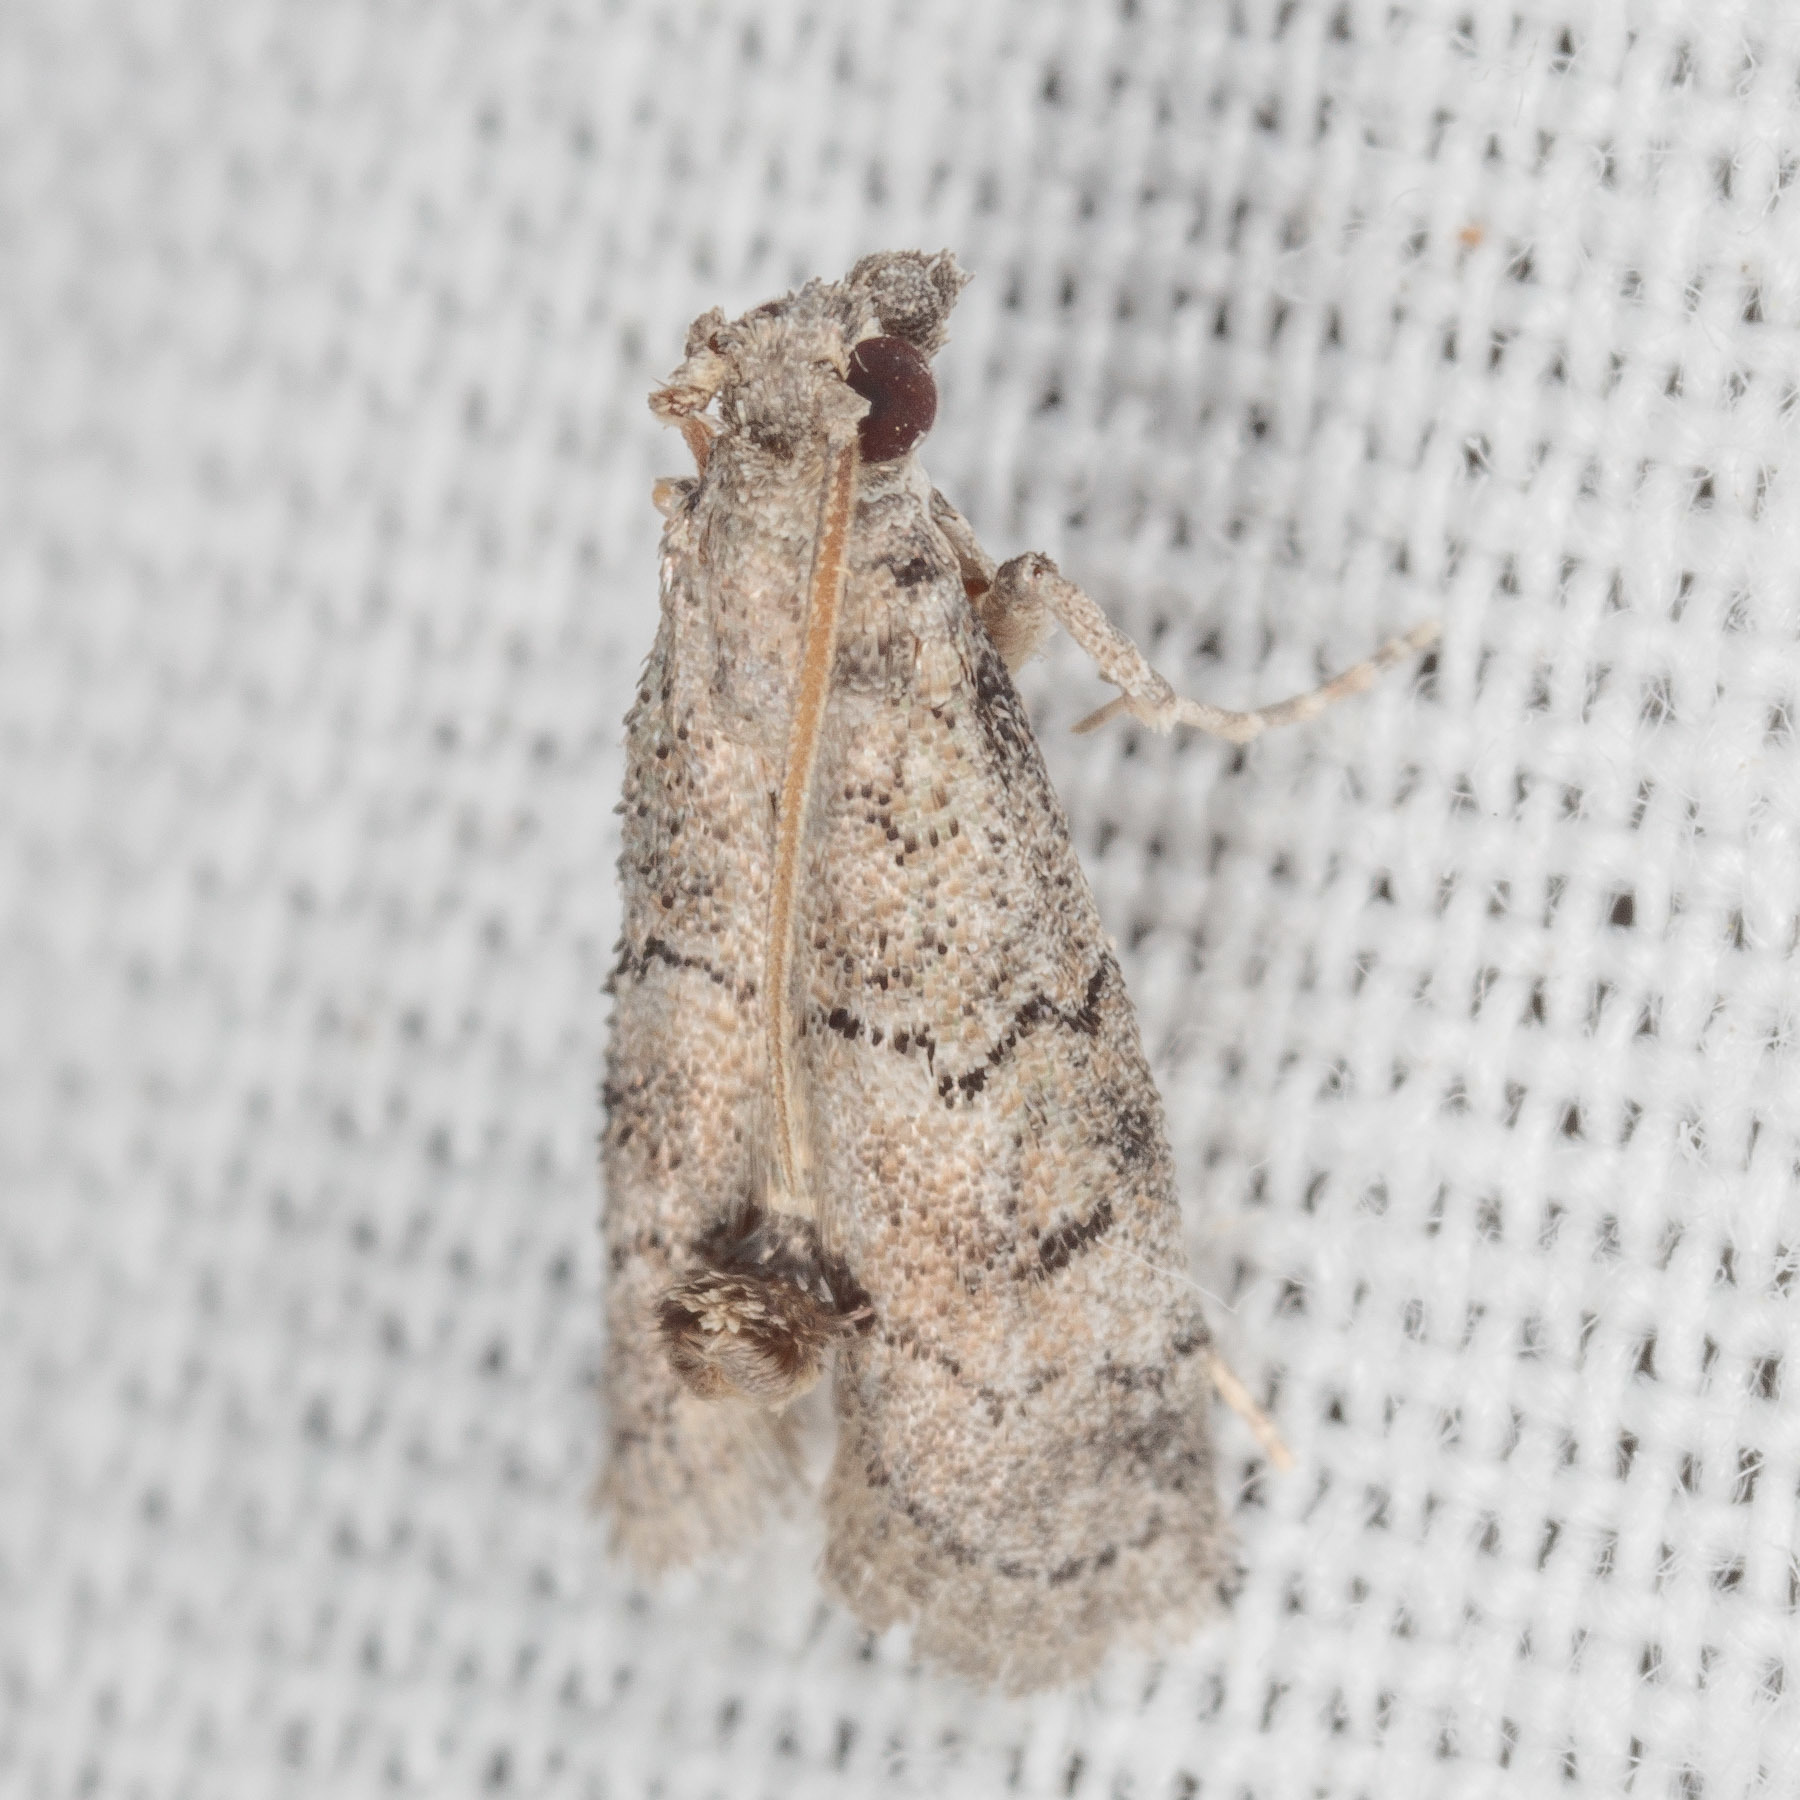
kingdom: Animalia
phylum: Arthropoda
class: Insecta
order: Lepidoptera
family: Pyralidae
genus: Cacotherapia
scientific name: Cacotherapia flexilinealis
